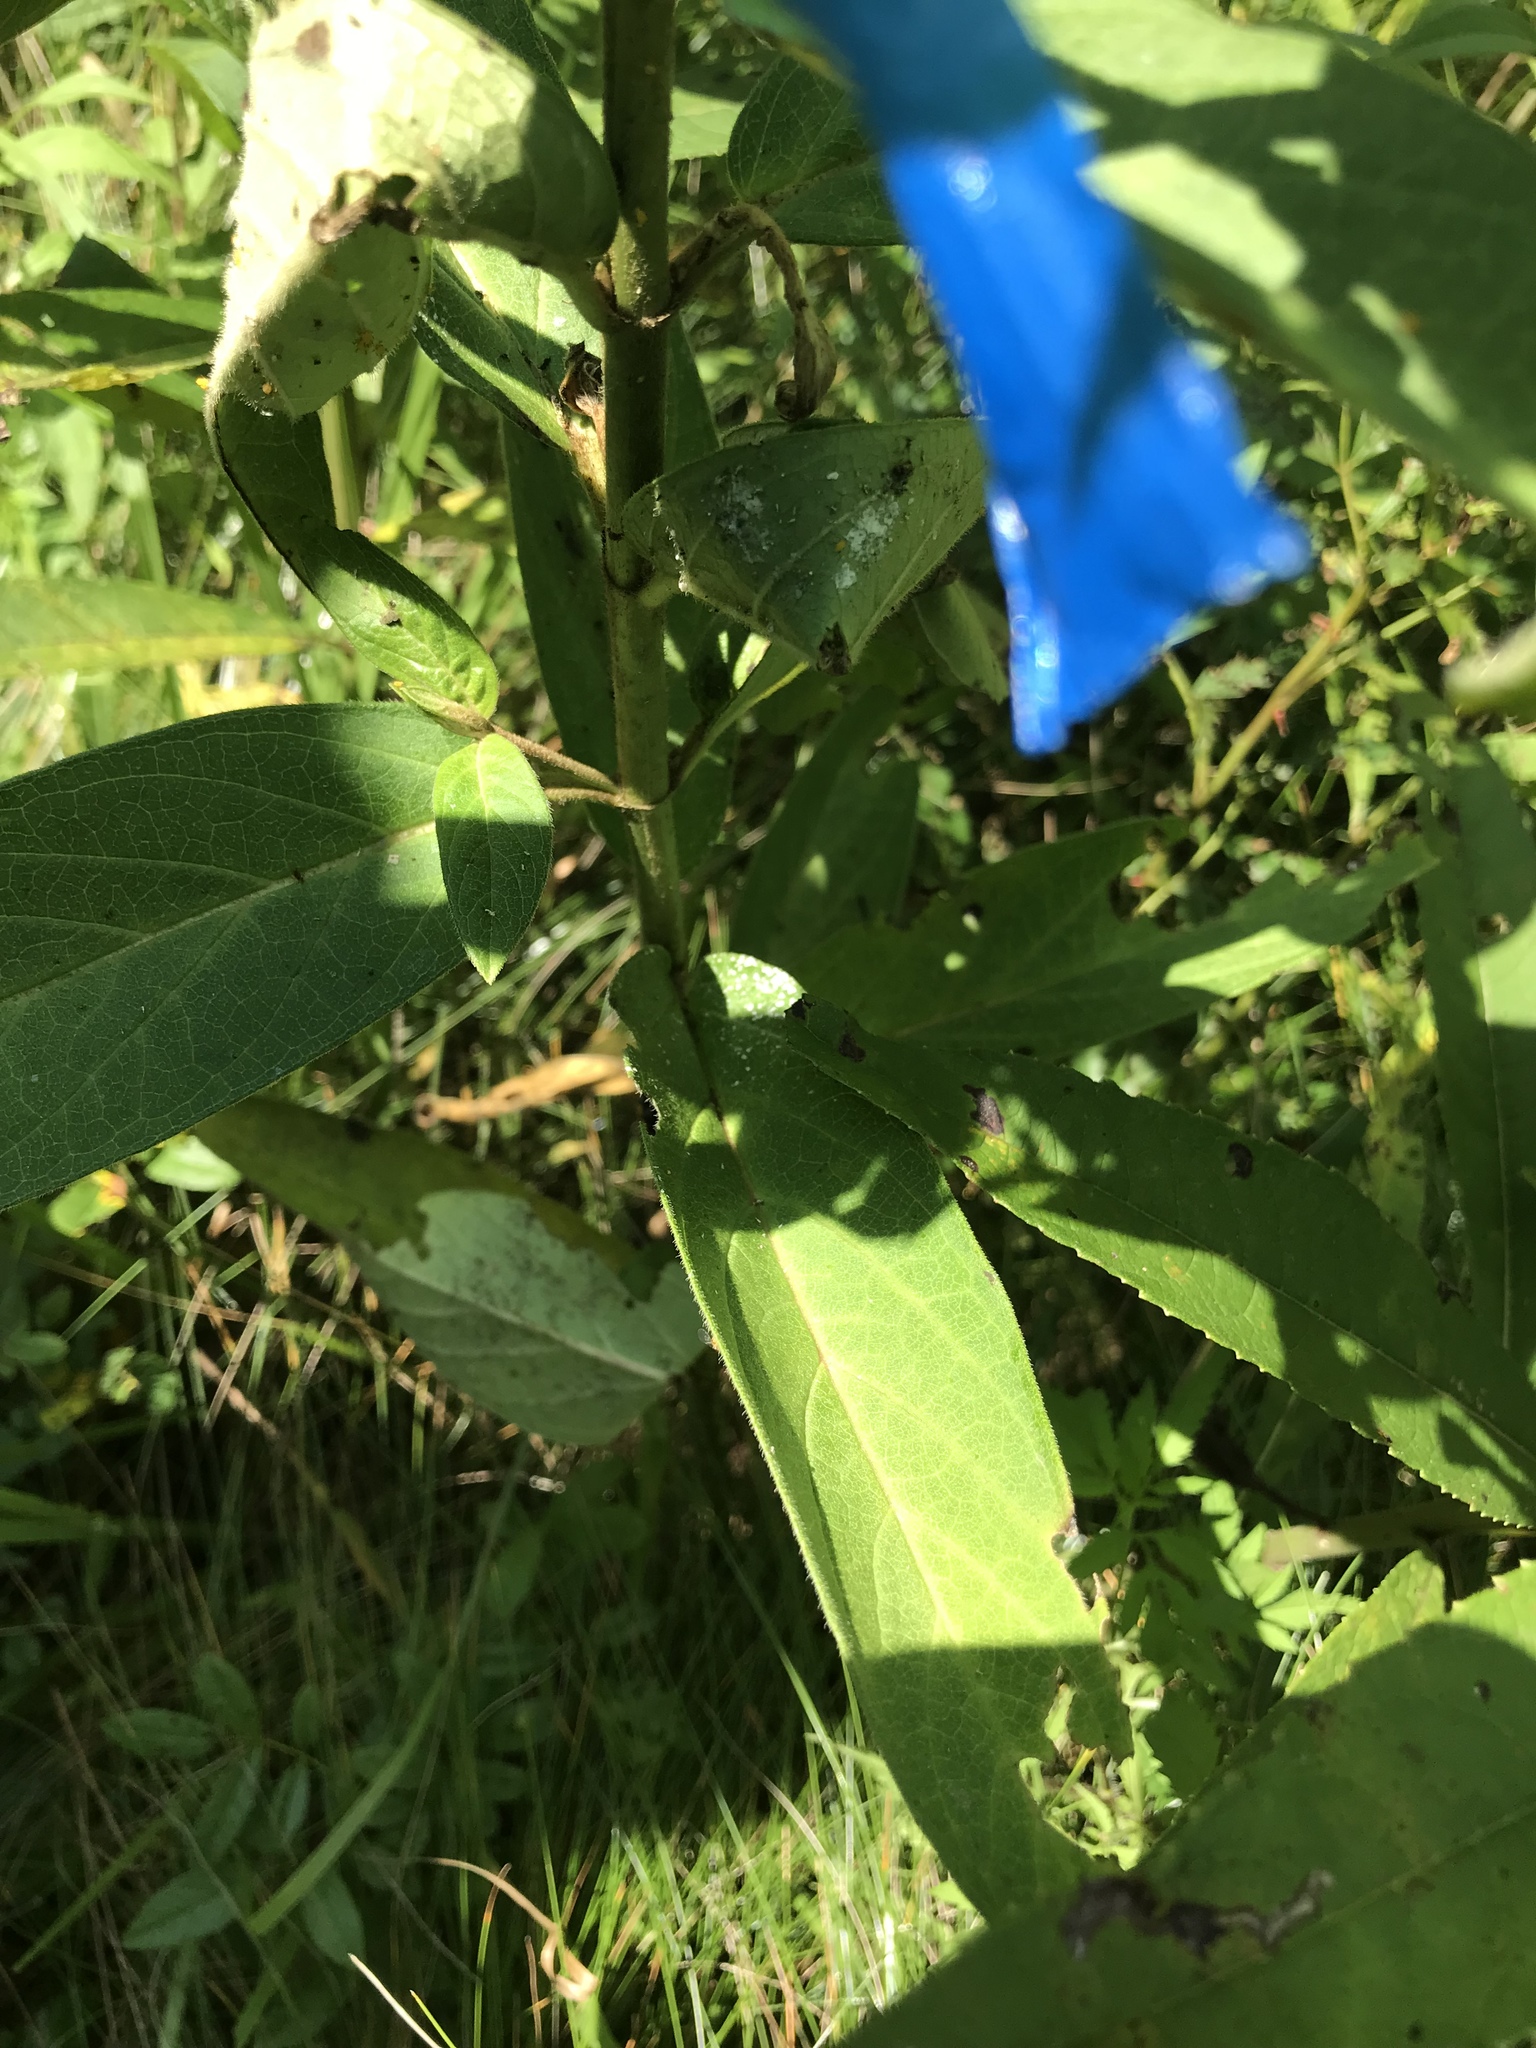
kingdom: Plantae
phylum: Tracheophyta
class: Magnoliopsida
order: Gentianales
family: Apocynaceae
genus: Asclepias
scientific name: Asclepias incarnata
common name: Swamp milkweed
